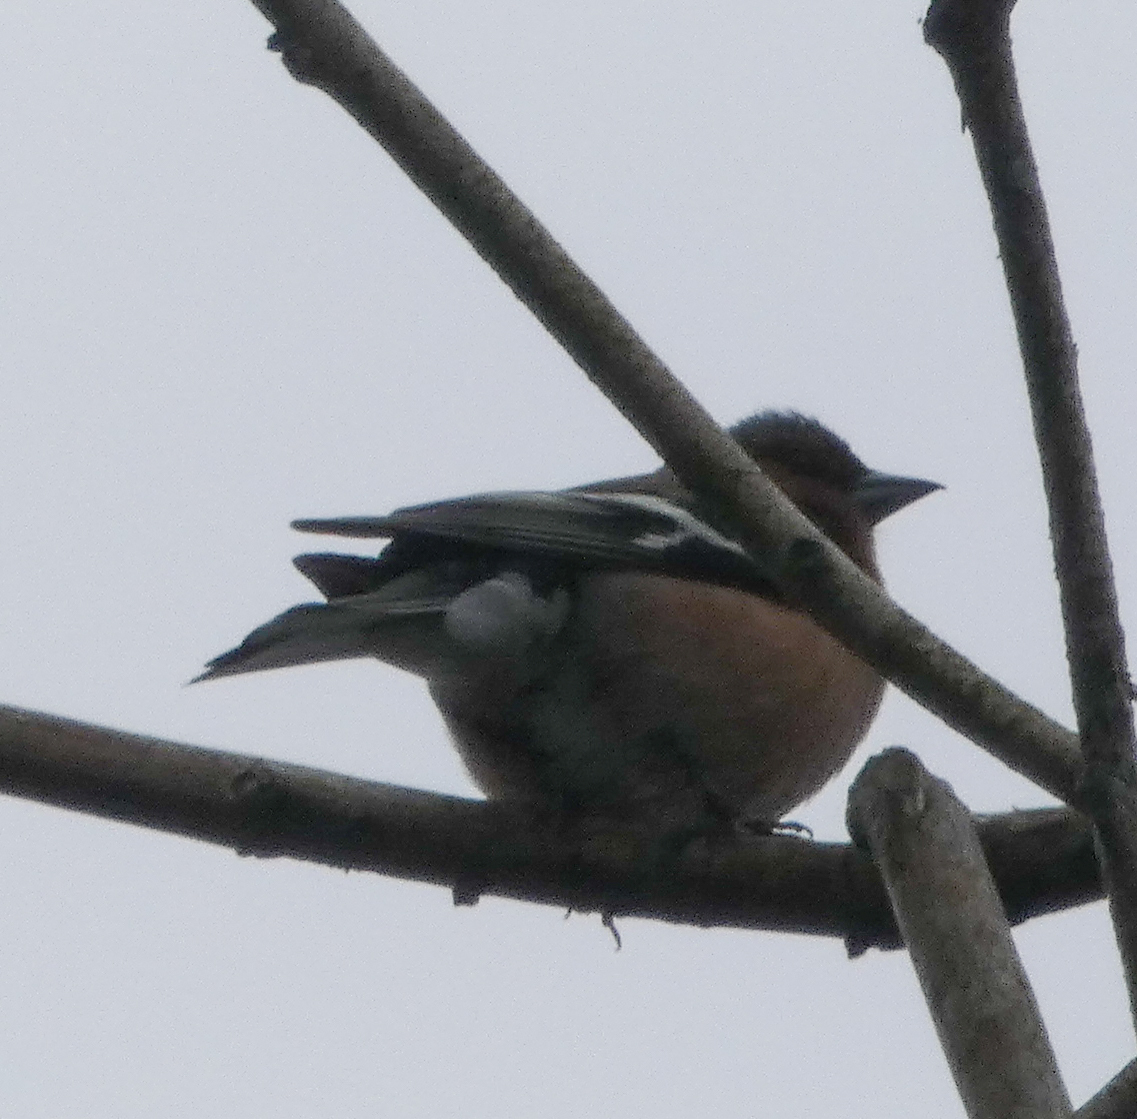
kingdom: Animalia
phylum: Chordata
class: Aves
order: Passeriformes
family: Fringillidae
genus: Fringilla
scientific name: Fringilla coelebs
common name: Common chaffinch
